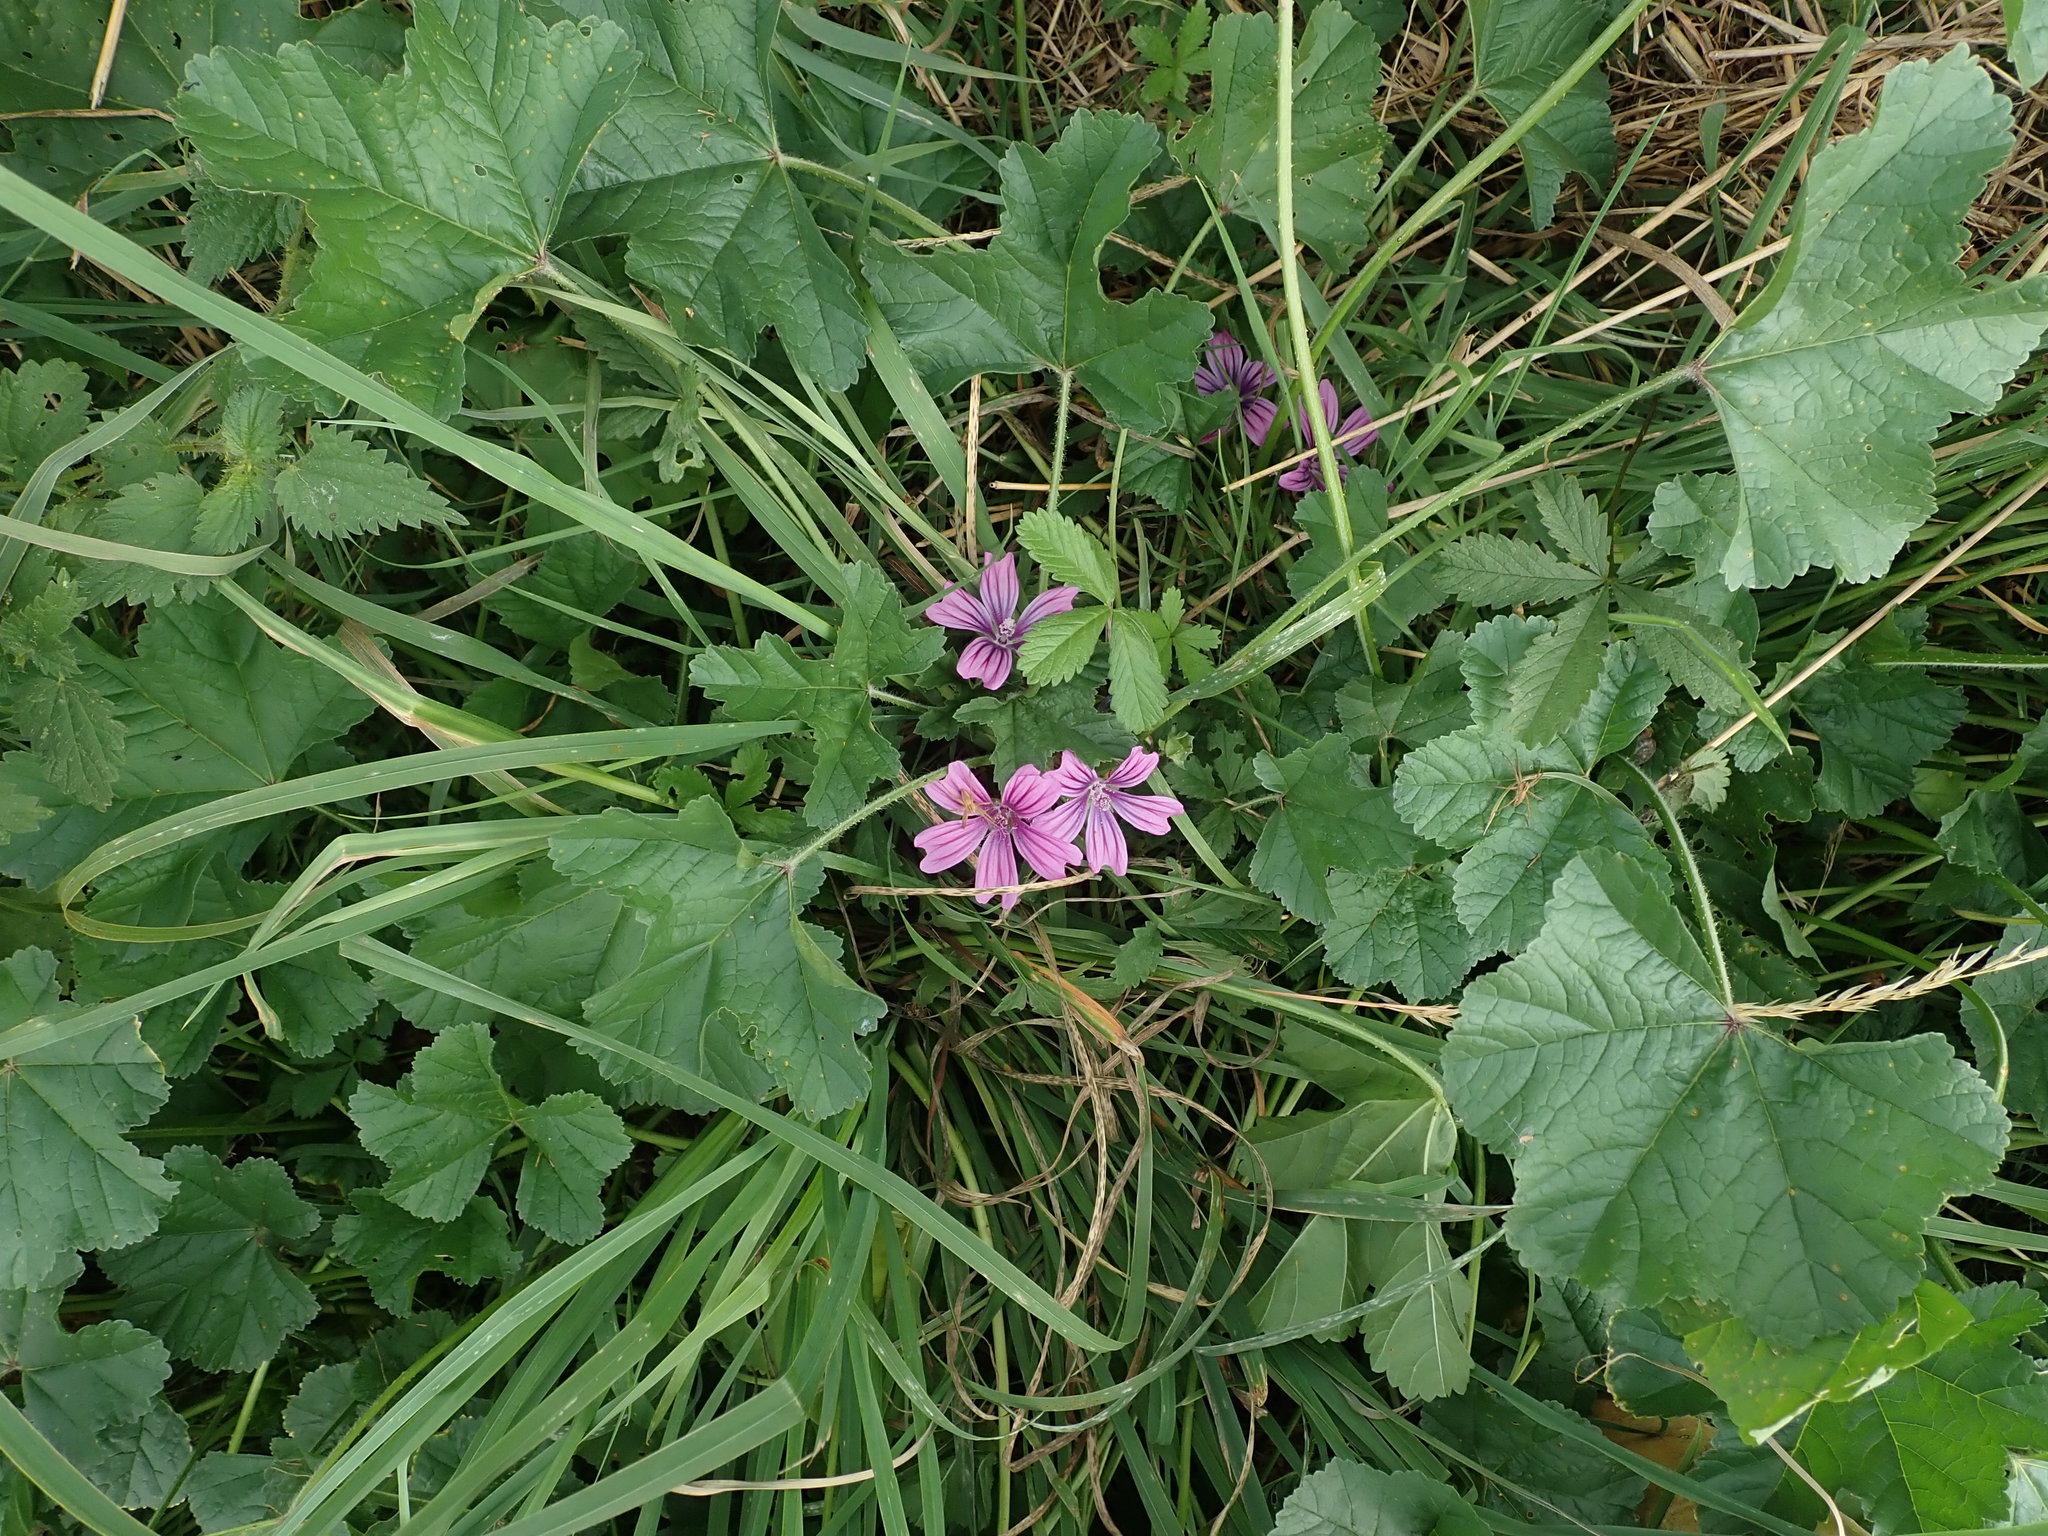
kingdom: Plantae
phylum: Tracheophyta
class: Magnoliopsida
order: Malvales
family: Malvaceae
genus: Malva
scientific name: Malva sylvestris
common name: Common mallow
